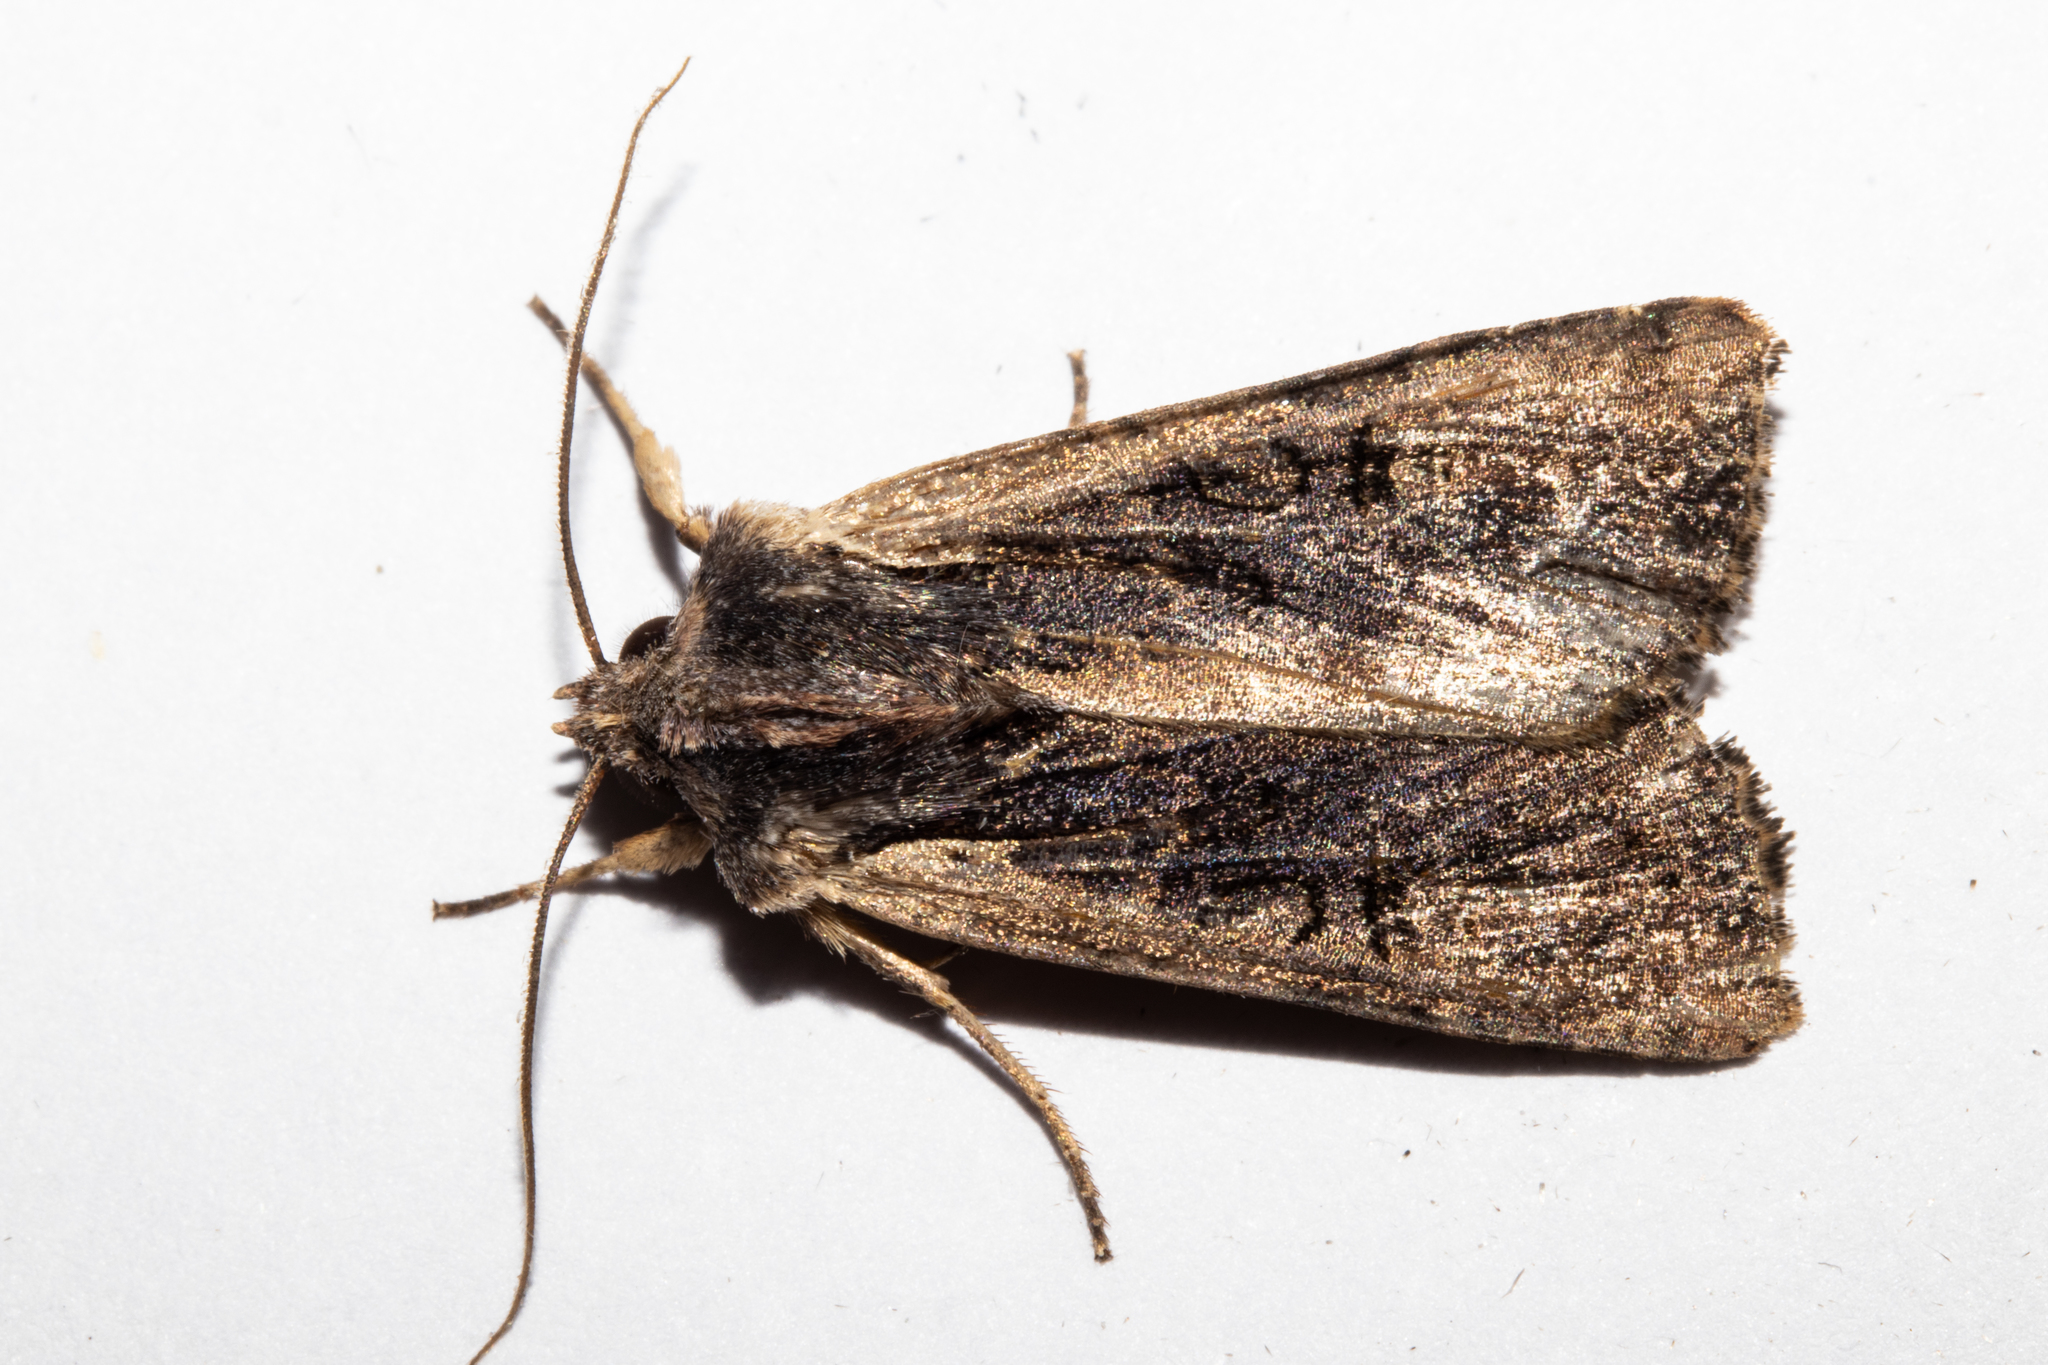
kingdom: Animalia
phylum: Arthropoda
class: Insecta
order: Lepidoptera
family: Noctuidae
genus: Ichneutica
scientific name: Ichneutica omoplaca
